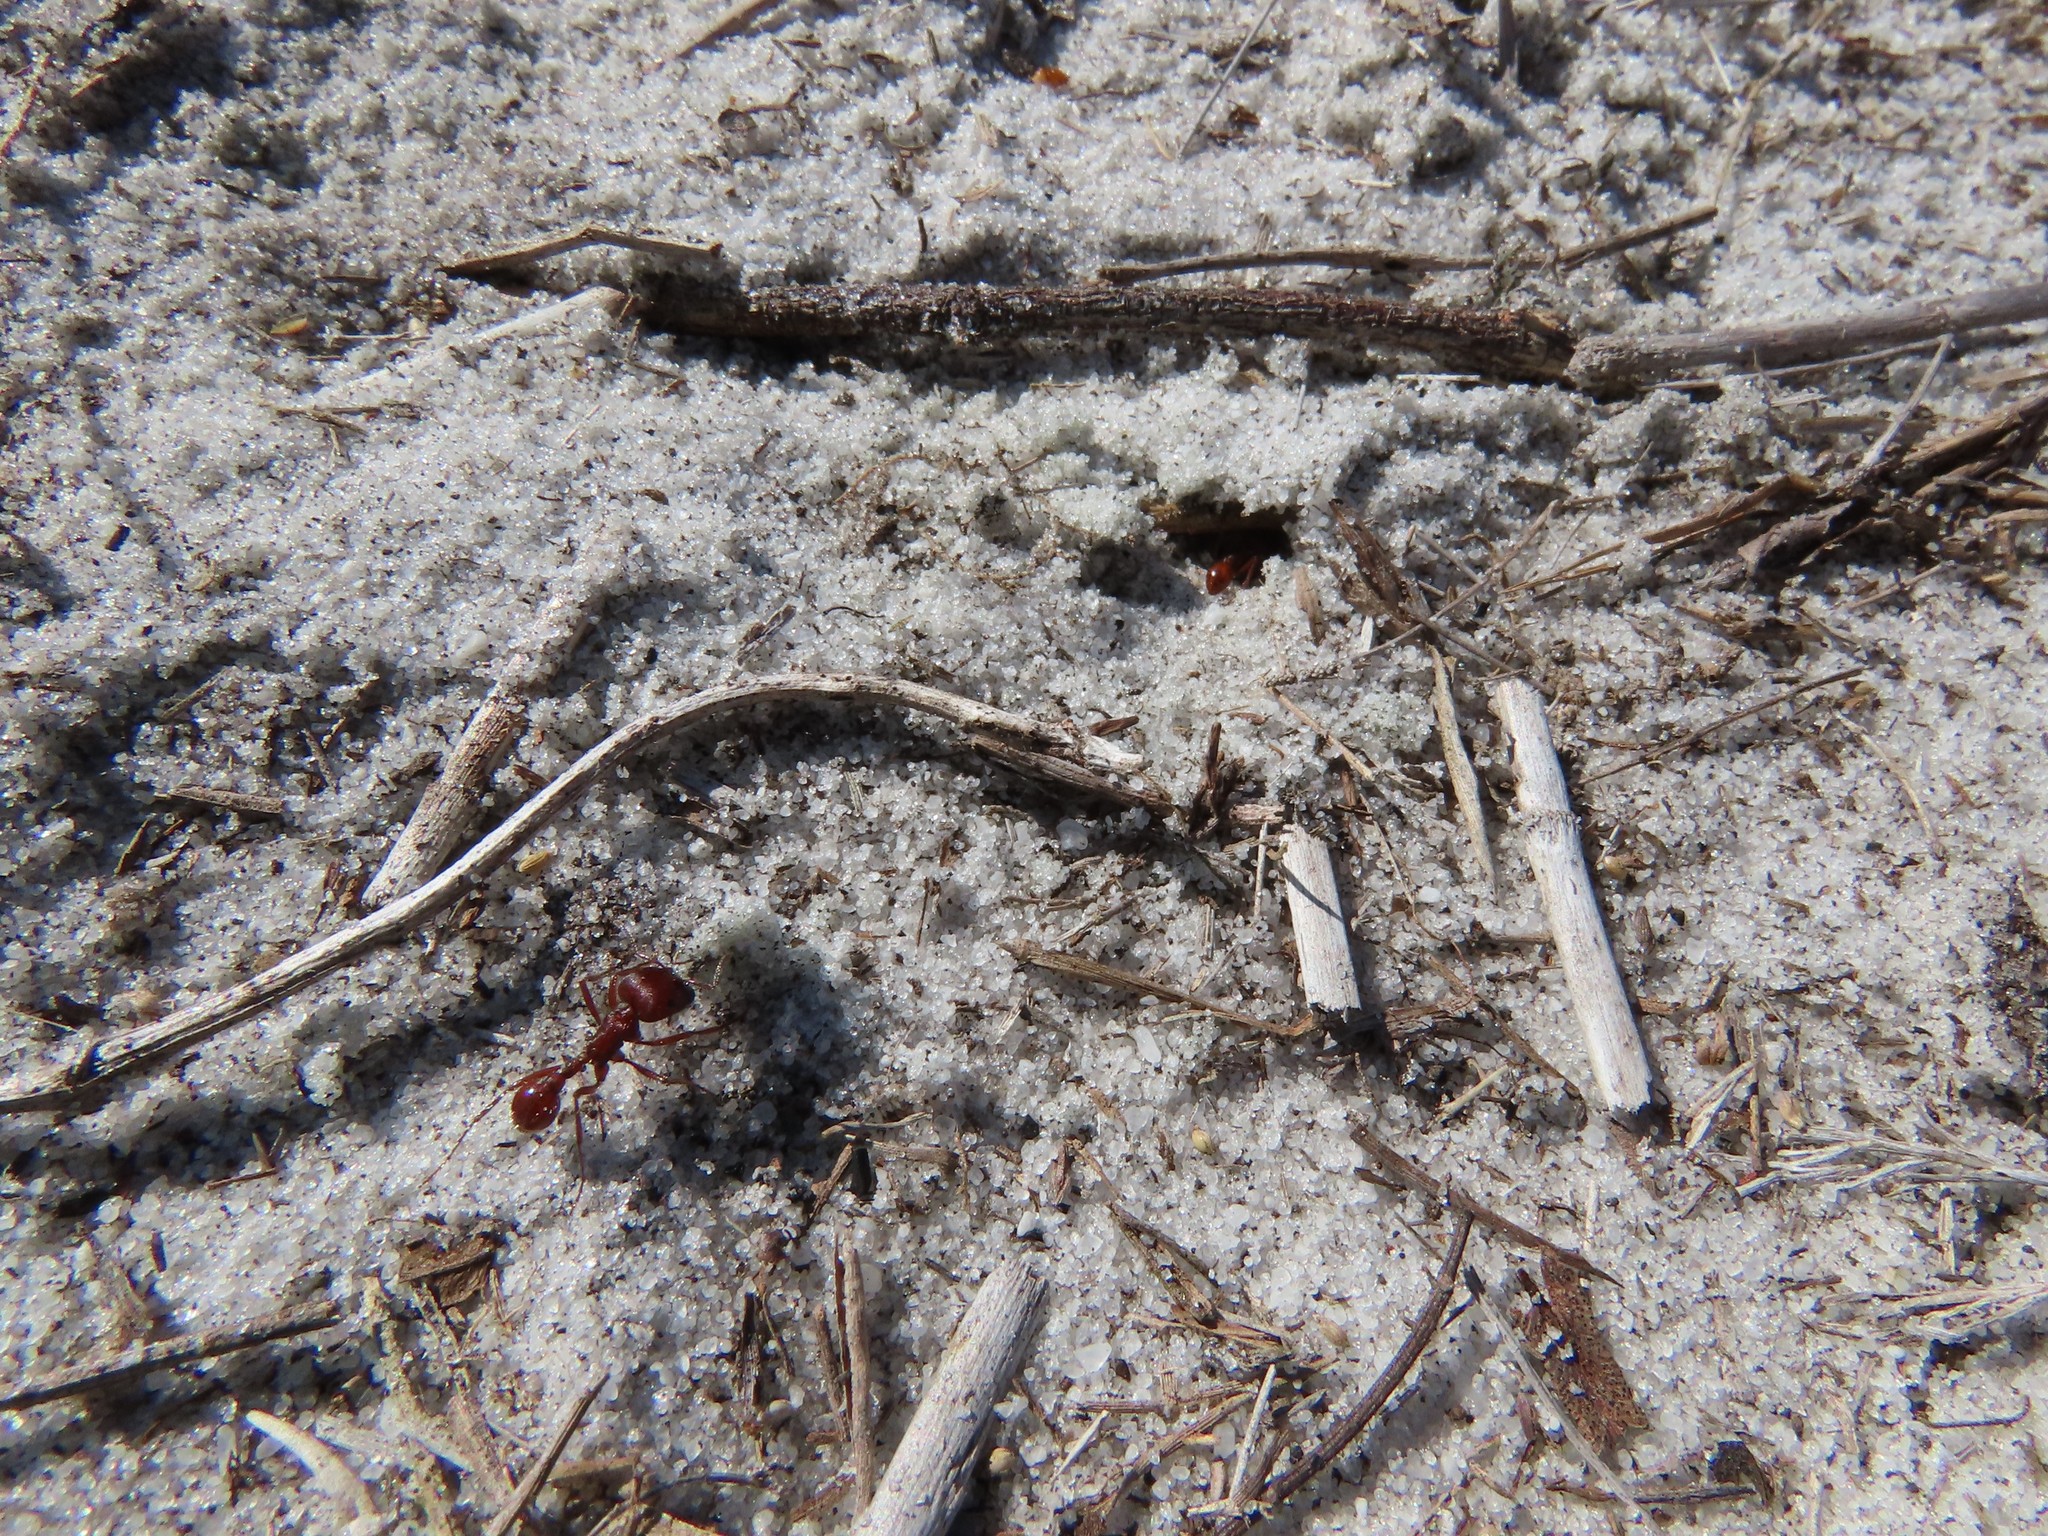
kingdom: Animalia
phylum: Arthropoda
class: Insecta
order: Hymenoptera
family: Formicidae
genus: Pogonomyrmex
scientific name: Pogonomyrmex badius
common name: Florida harvester ant
